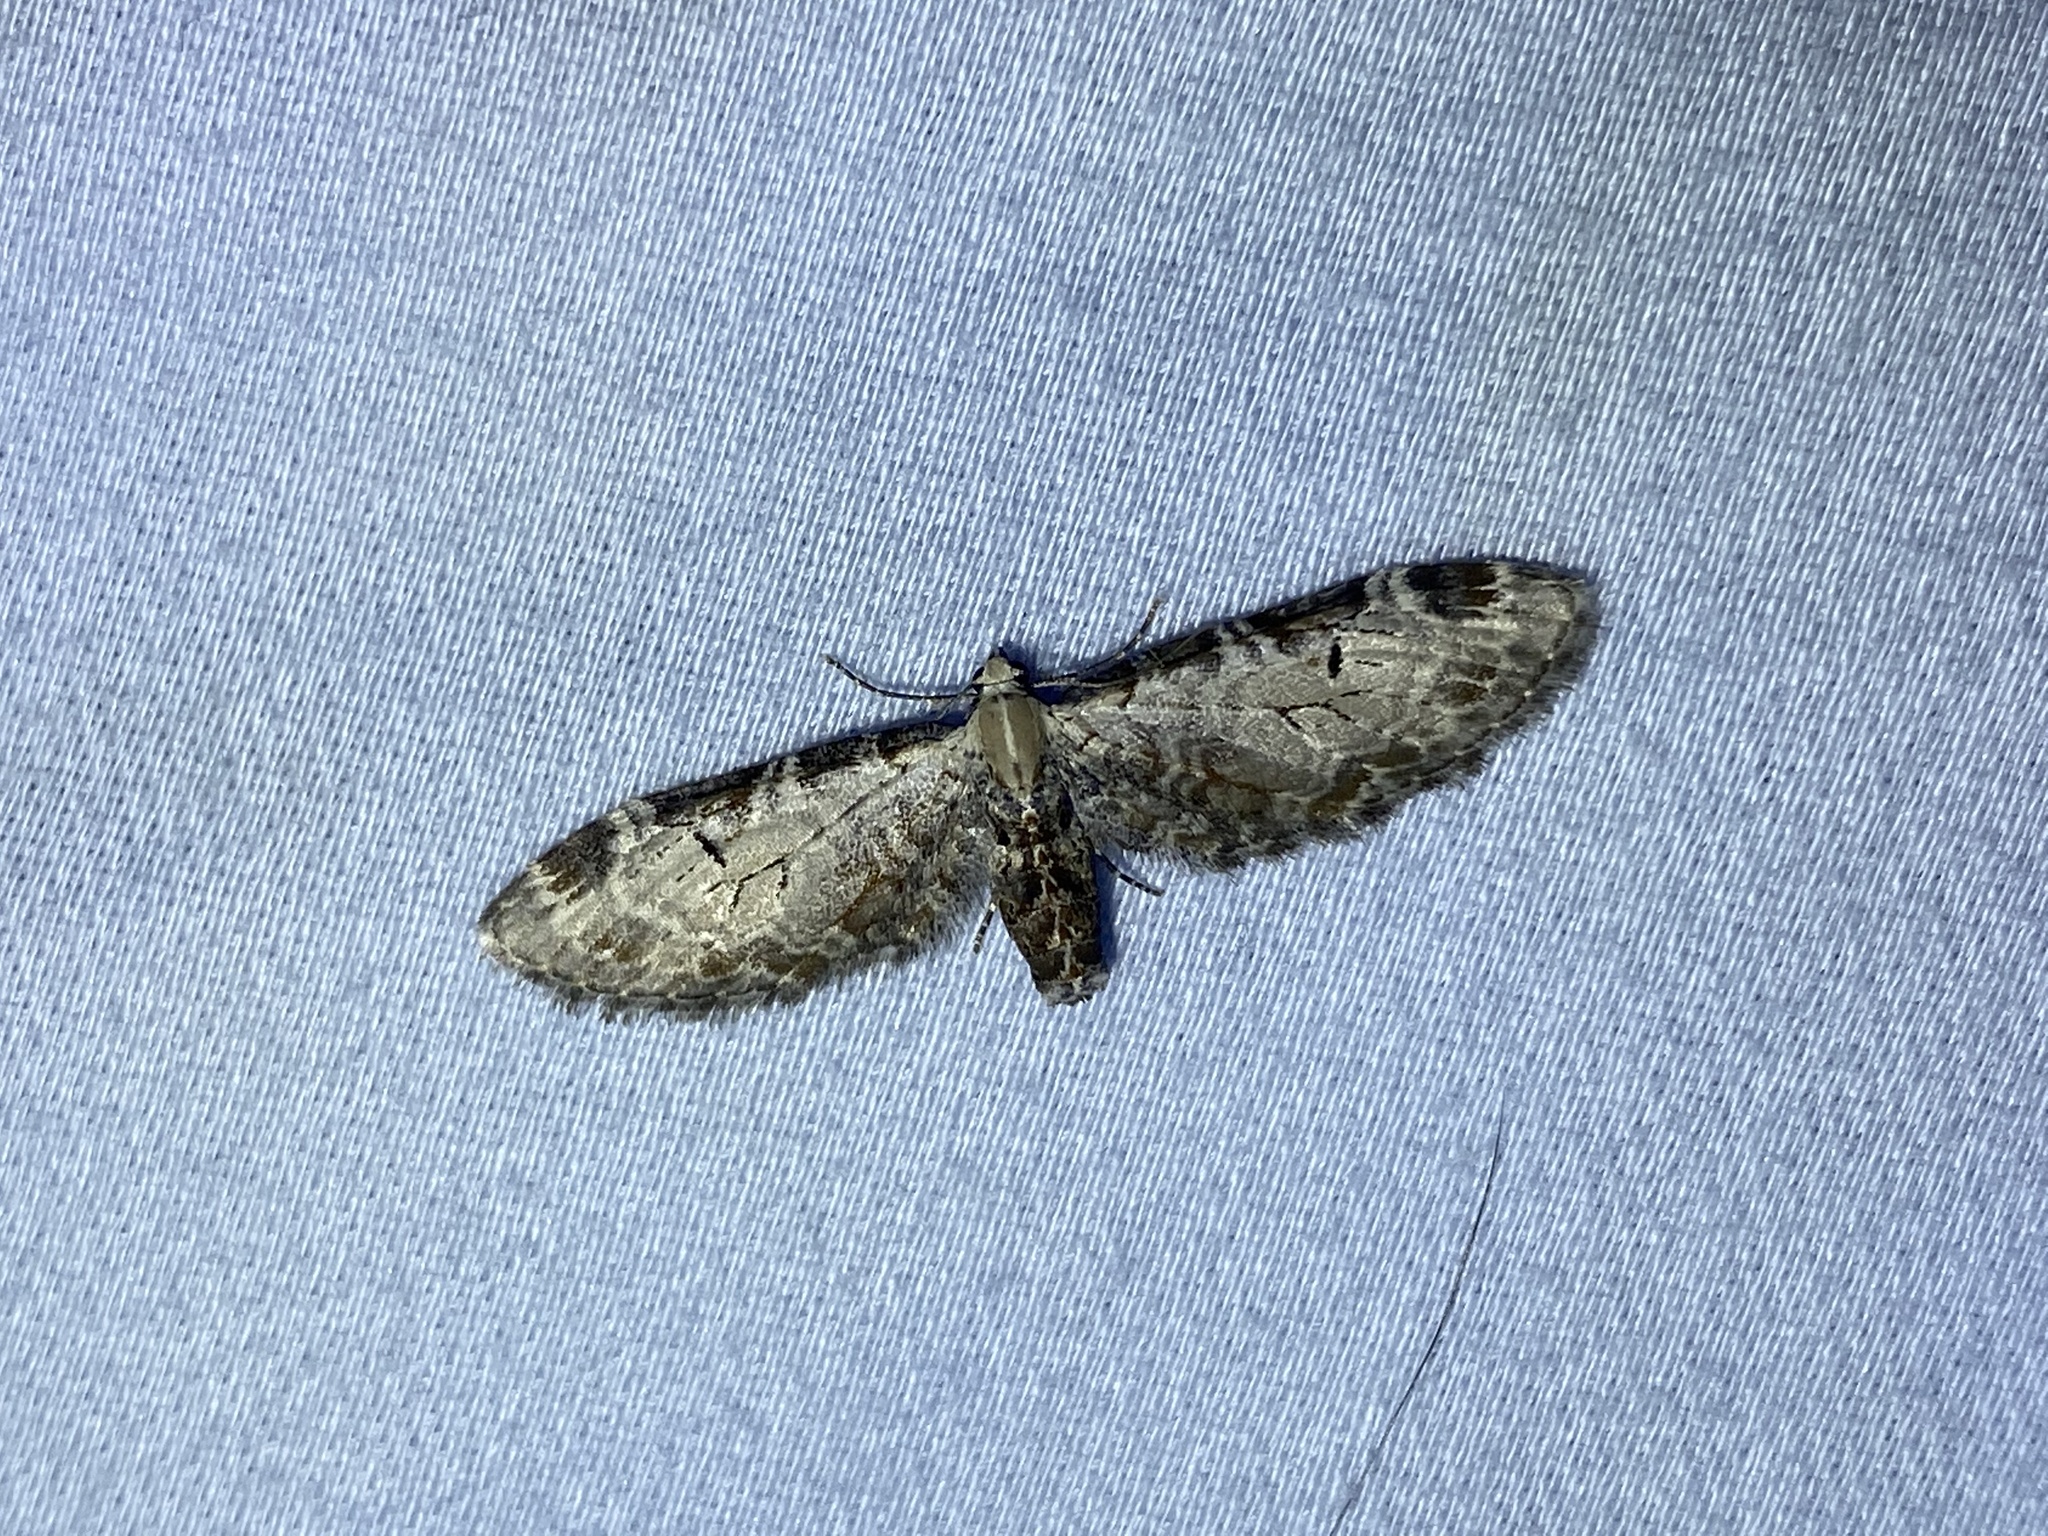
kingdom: Animalia
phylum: Arthropoda
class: Insecta
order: Lepidoptera
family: Geometridae
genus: Eupithecia
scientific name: Eupithecia ravocostaliata
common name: Great varigated pug
